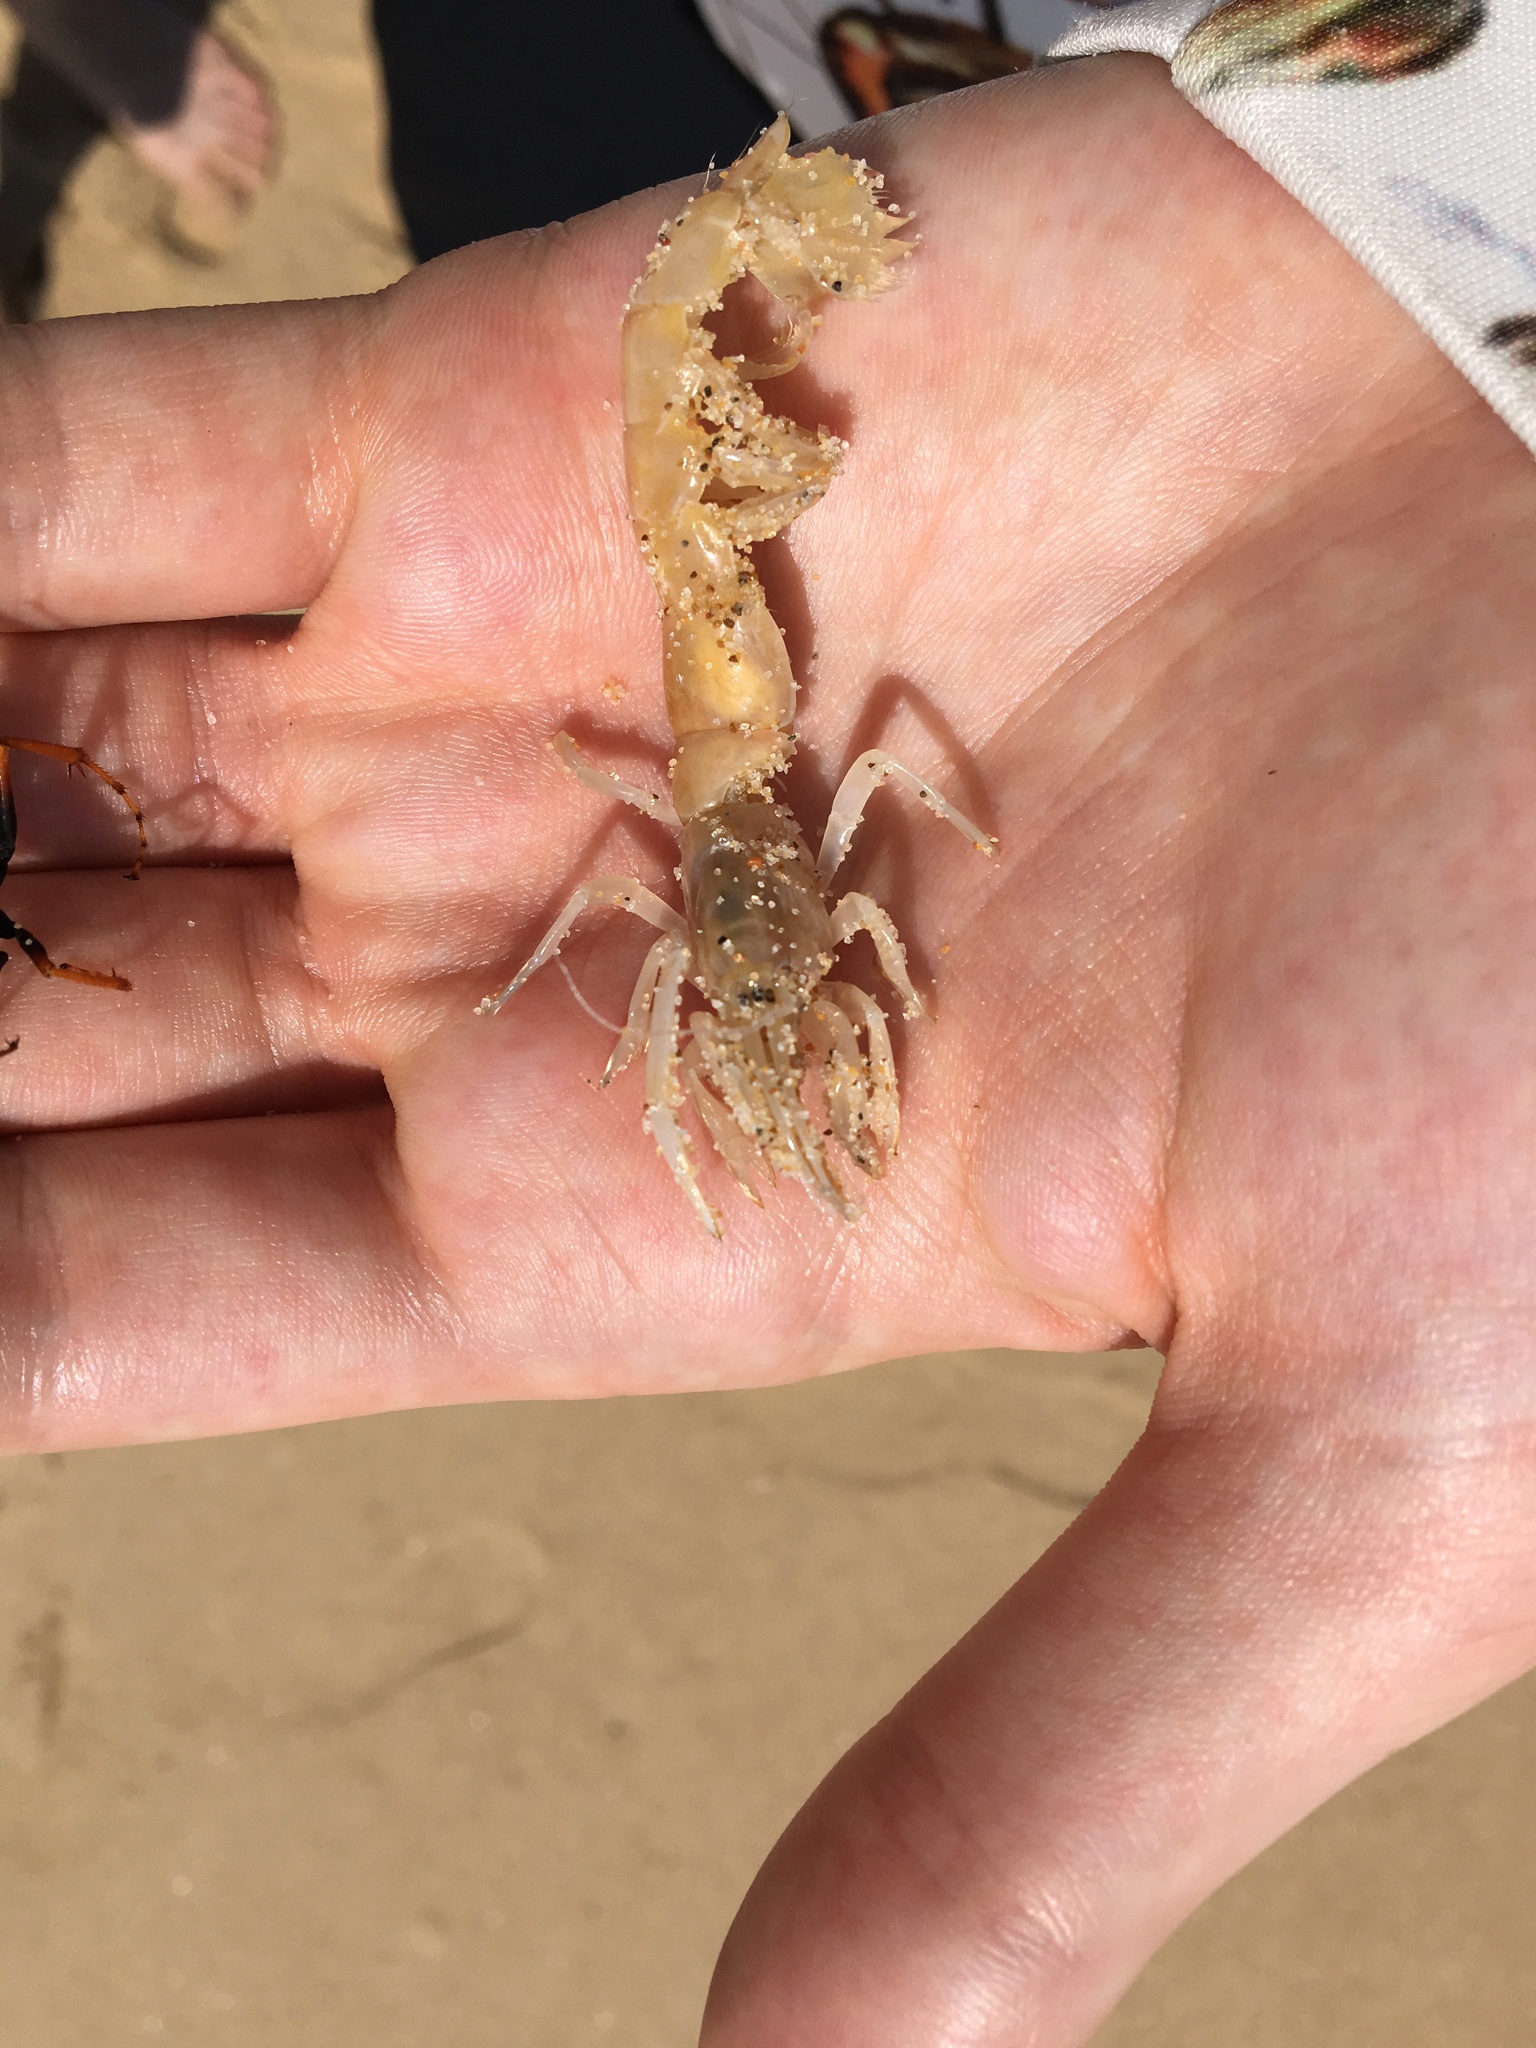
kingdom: Animalia
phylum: Arthropoda
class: Malacostraca
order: Decapoda
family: Callianassidae
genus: Trypaea
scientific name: Trypaea australiensis
